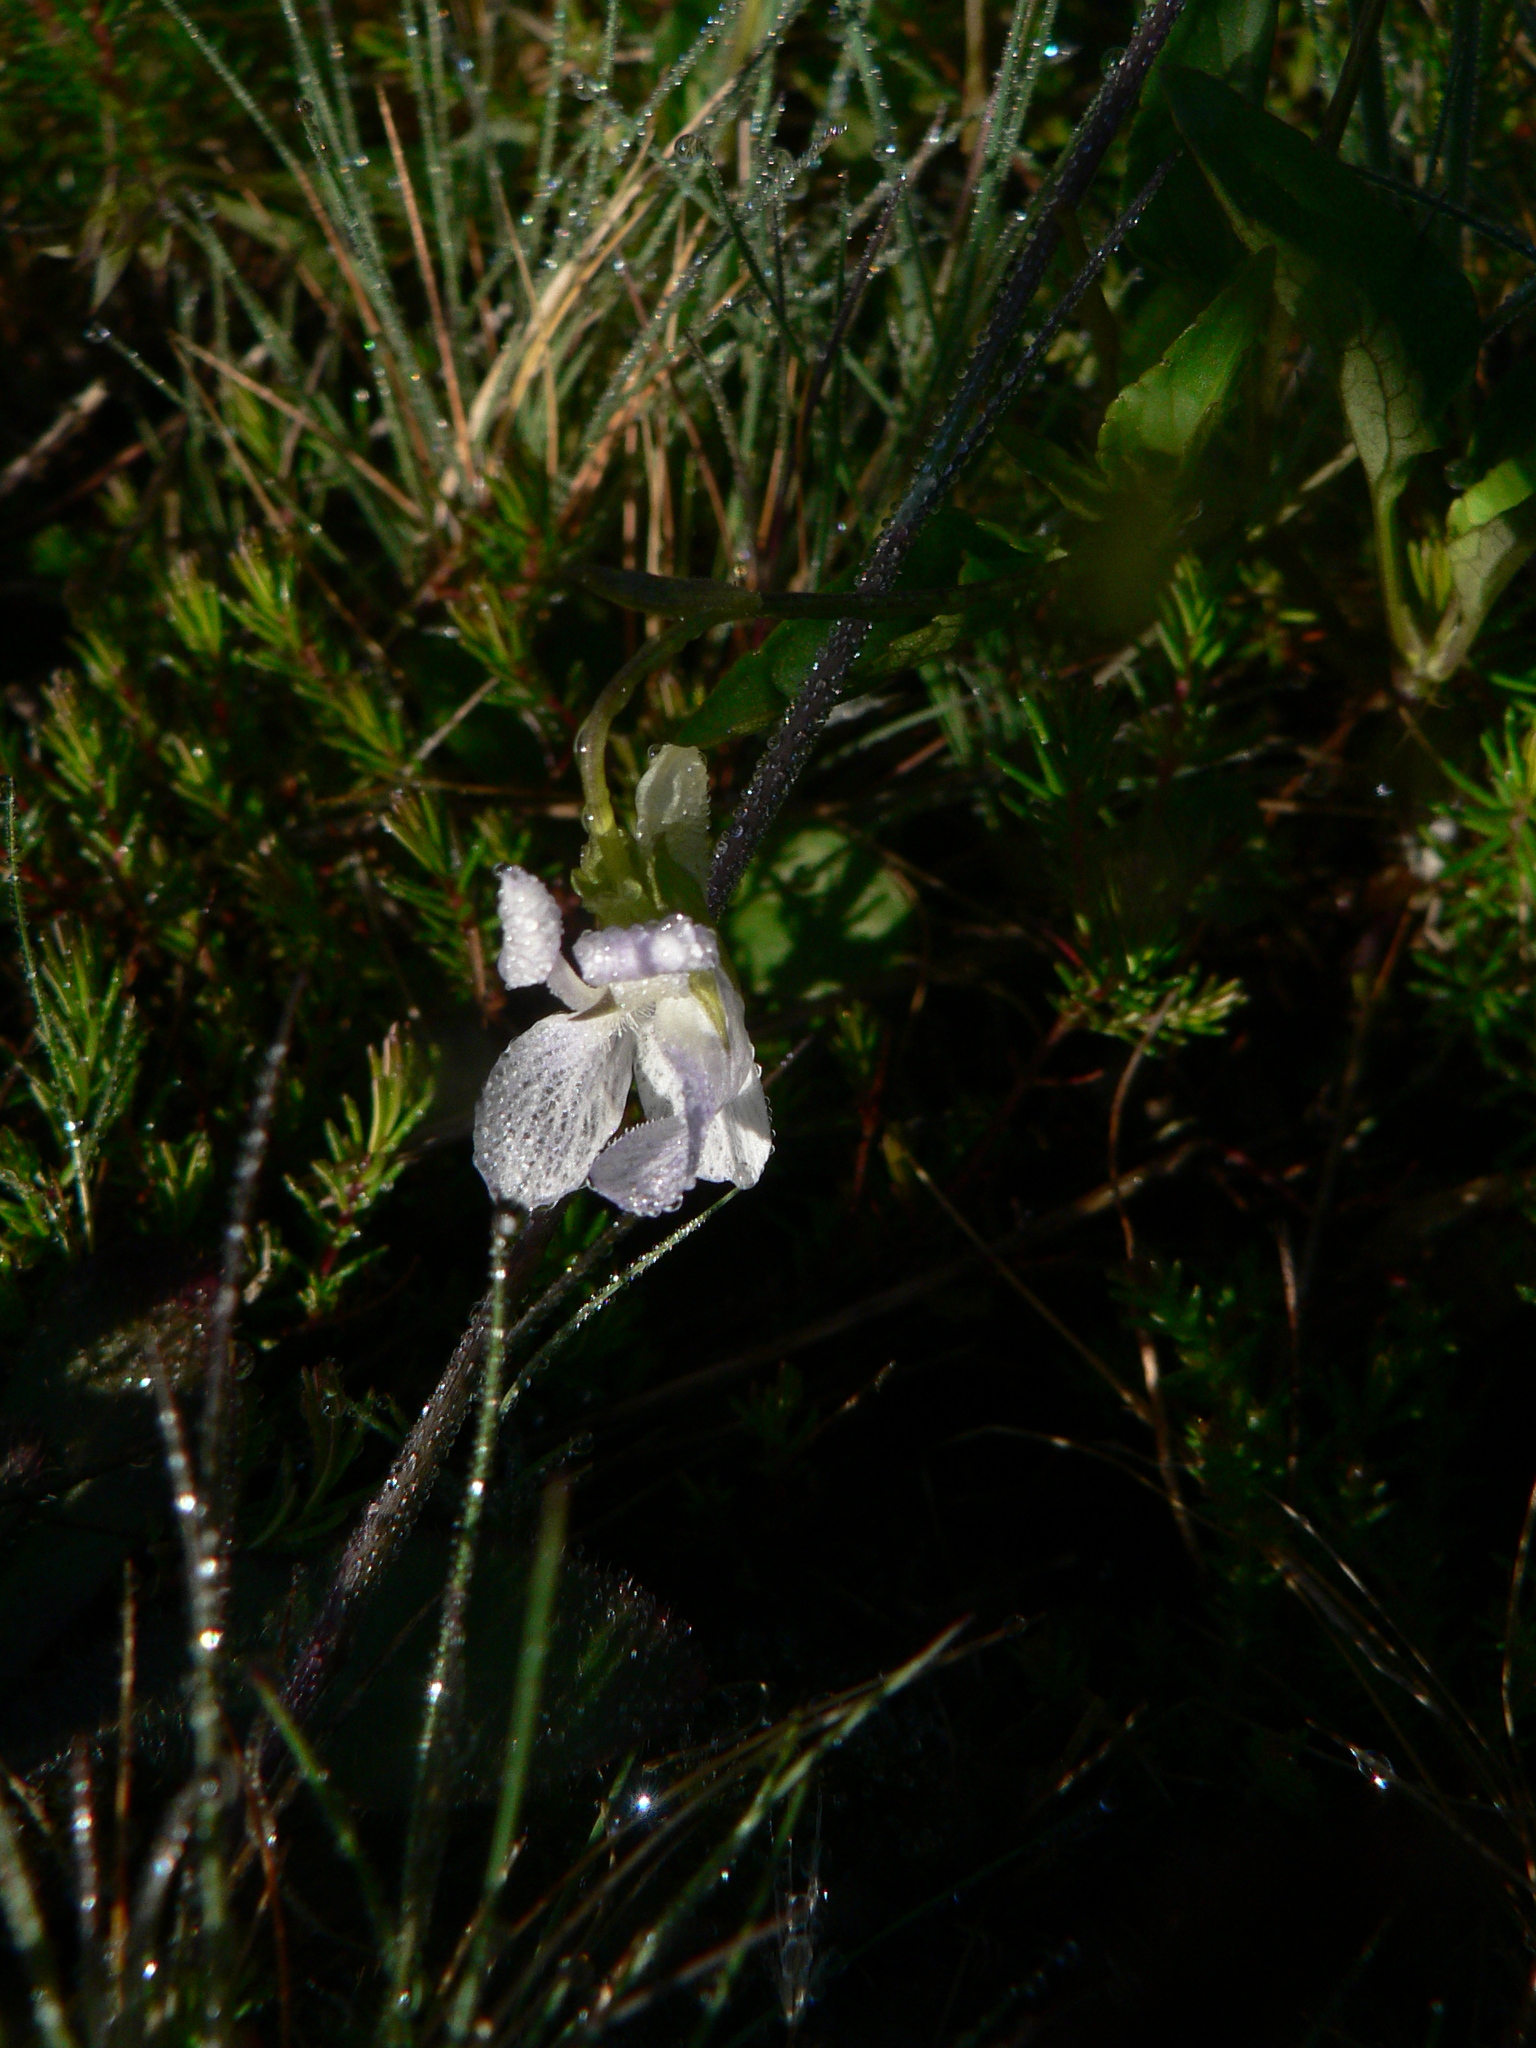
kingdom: Plantae
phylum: Tracheophyta
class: Magnoliopsida
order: Malpighiales
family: Violaceae
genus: Viola
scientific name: Viola lactea
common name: Pale dog-violet
